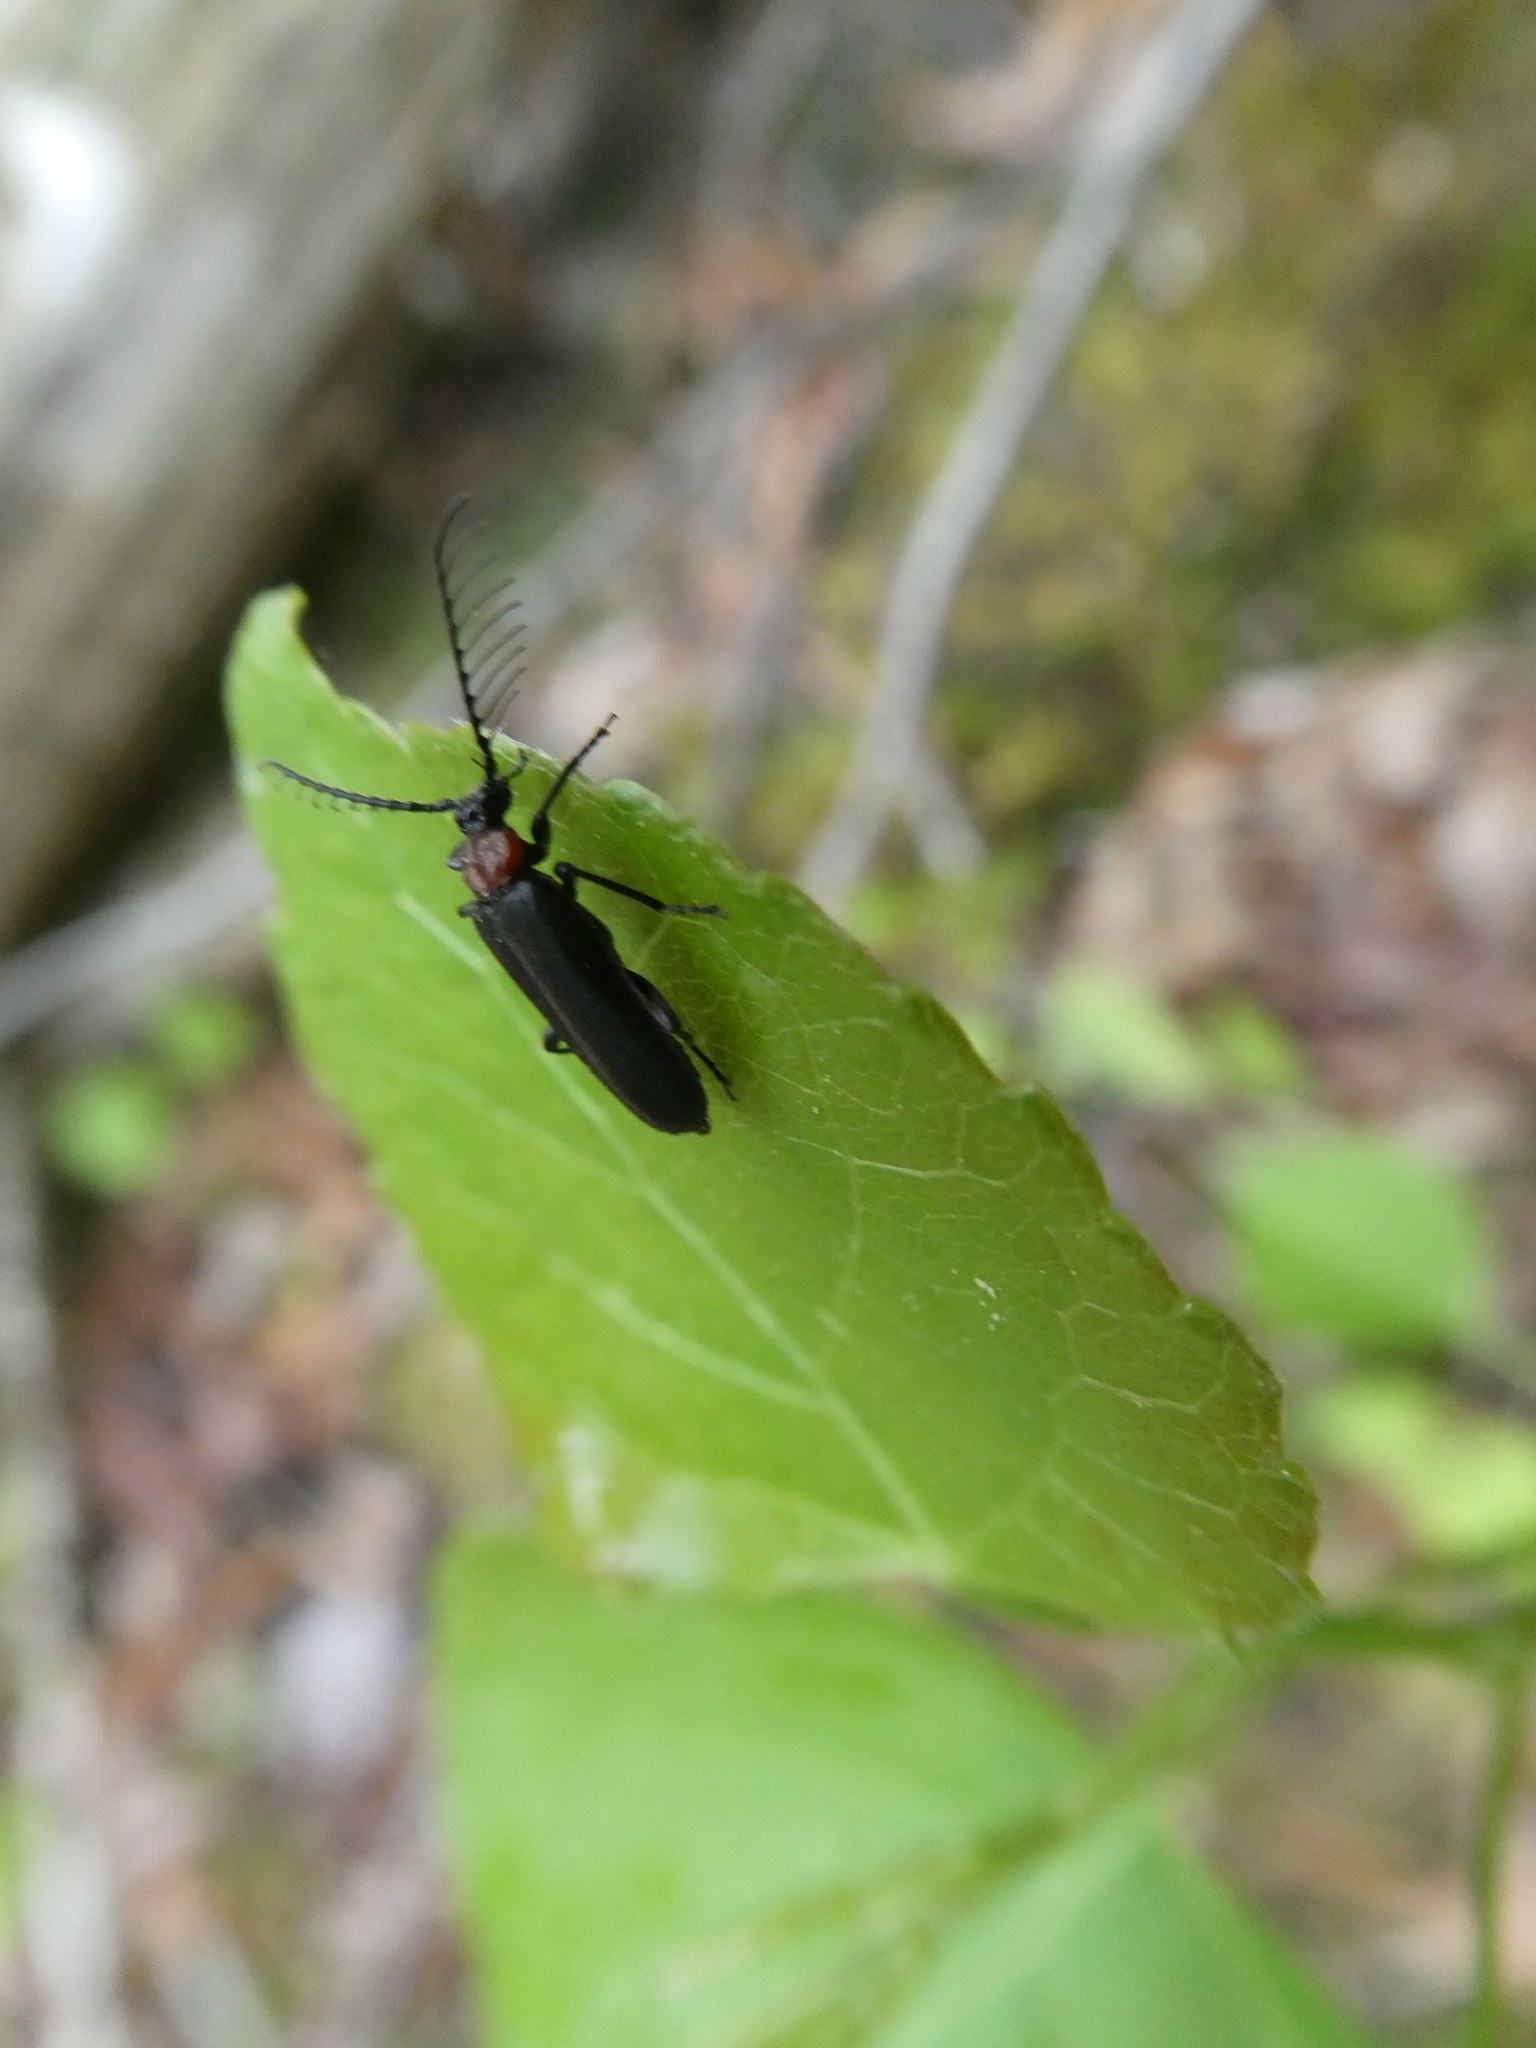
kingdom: Animalia
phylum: Arthropoda
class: Insecta
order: Coleoptera
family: Pyrochroidae
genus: Schizotus
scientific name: Schizotus cervicalis
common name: Flaming-pillow beetle
